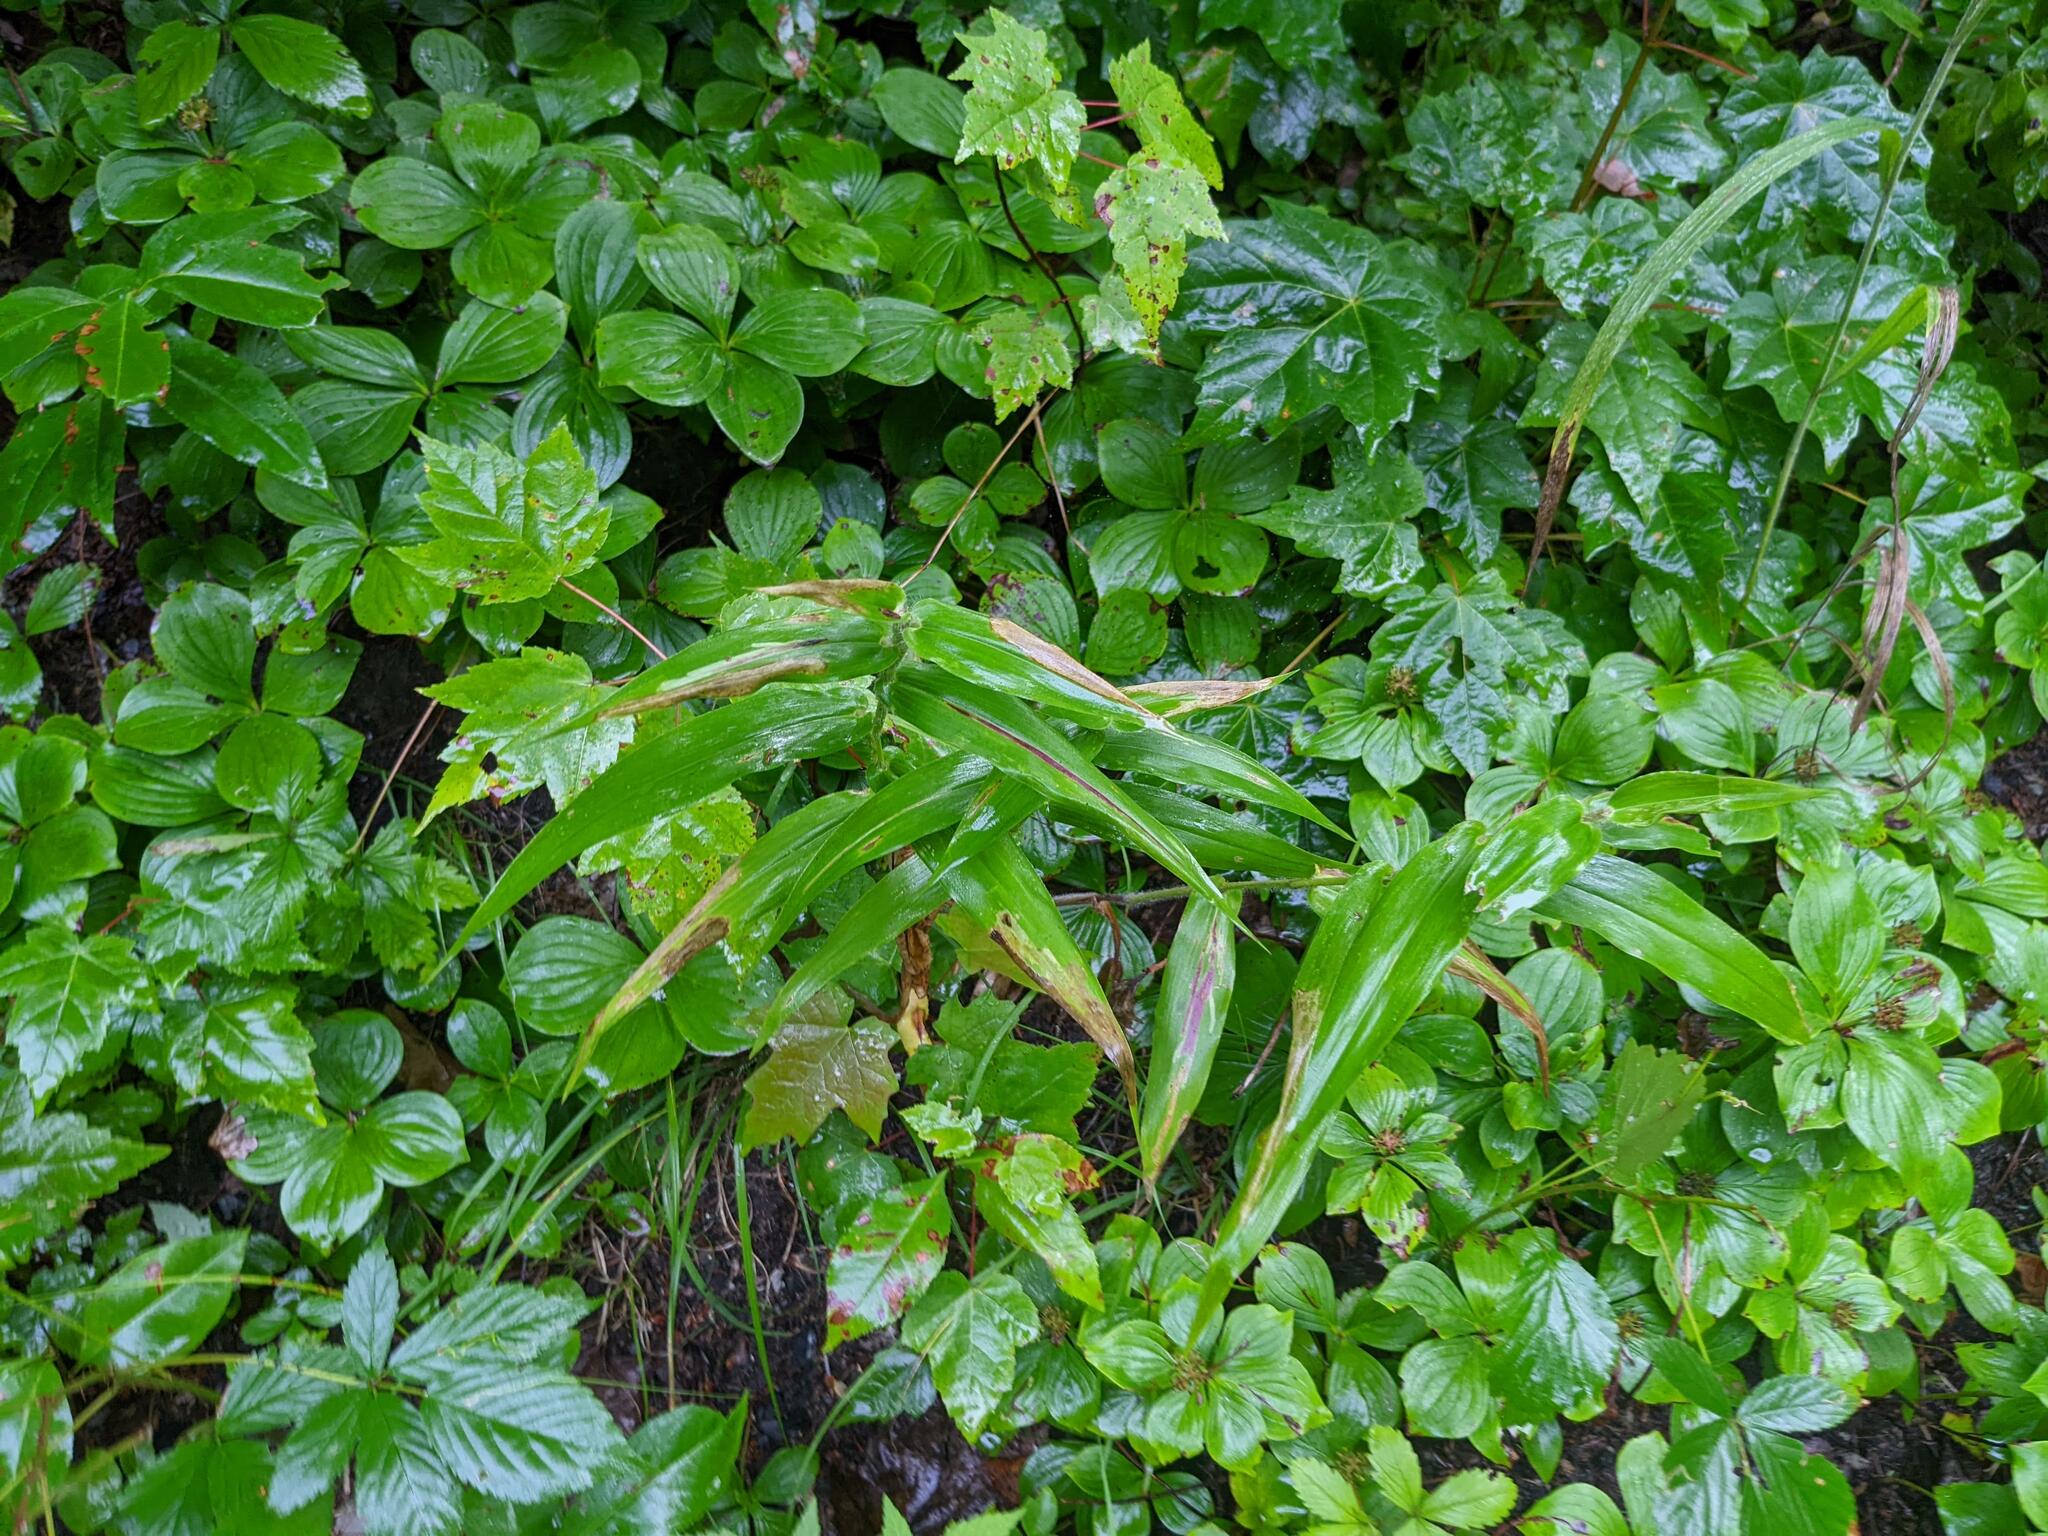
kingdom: Plantae
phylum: Tracheophyta
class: Magnoliopsida
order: Cornales
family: Cornaceae
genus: Cornus
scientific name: Cornus canadensis
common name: Creeping dogwood
